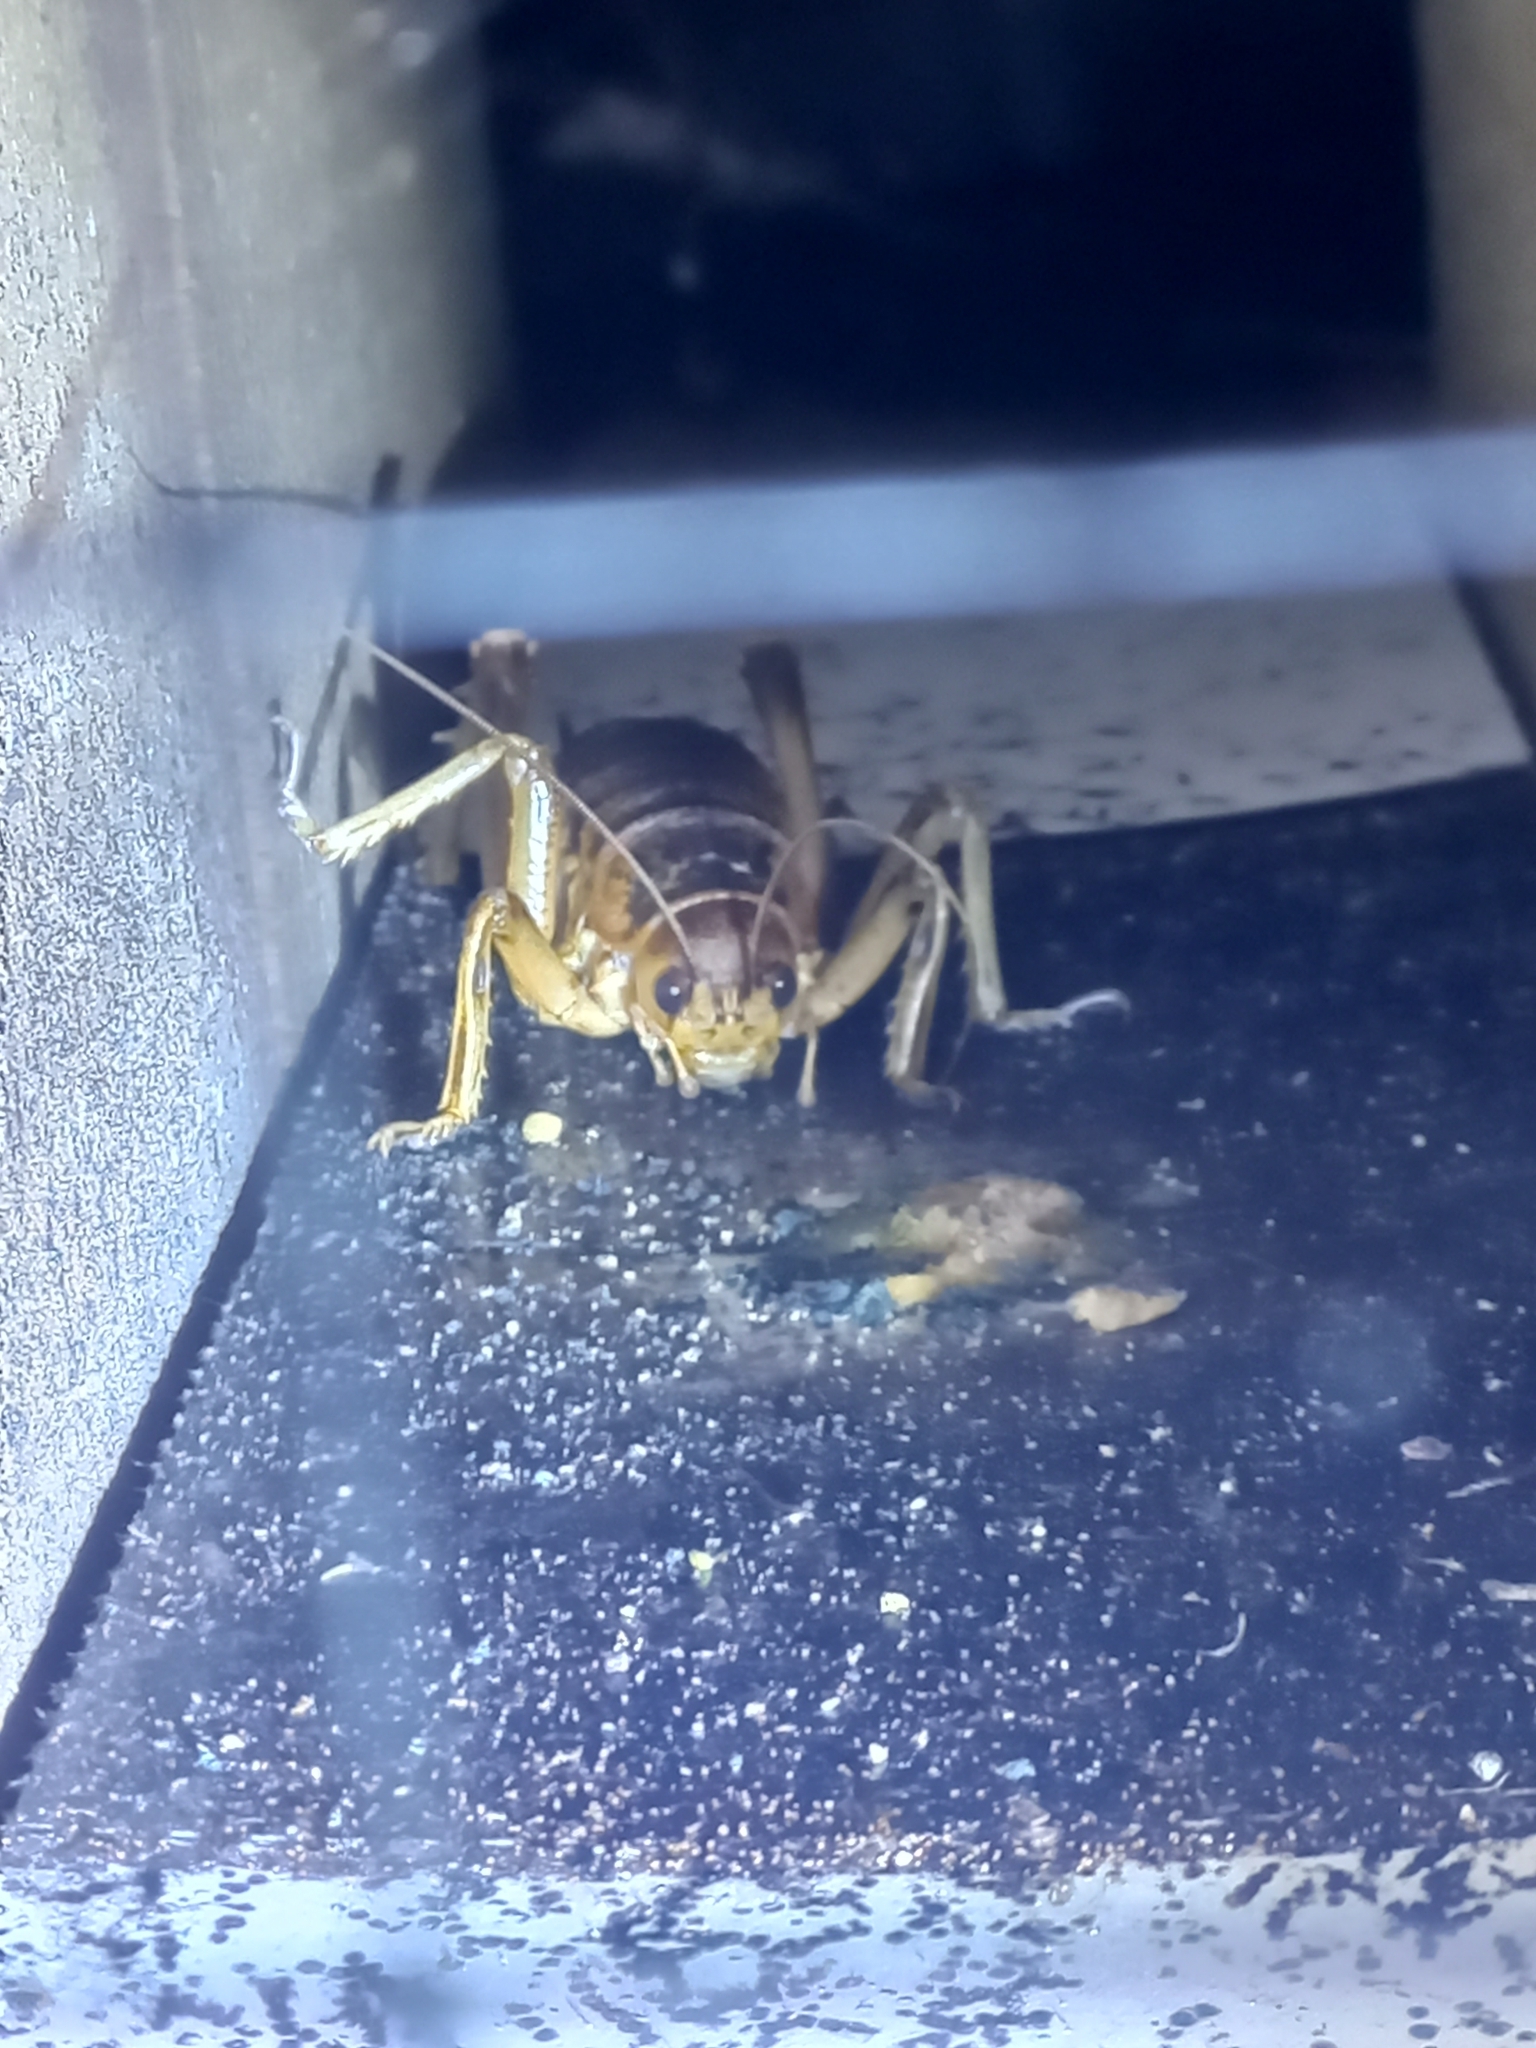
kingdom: Animalia
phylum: Arthropoda
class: Insecta
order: Orthoptera
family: Anostostomatidae
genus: Deinacrida
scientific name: Deinacrida rugosa
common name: Stephens island weta
